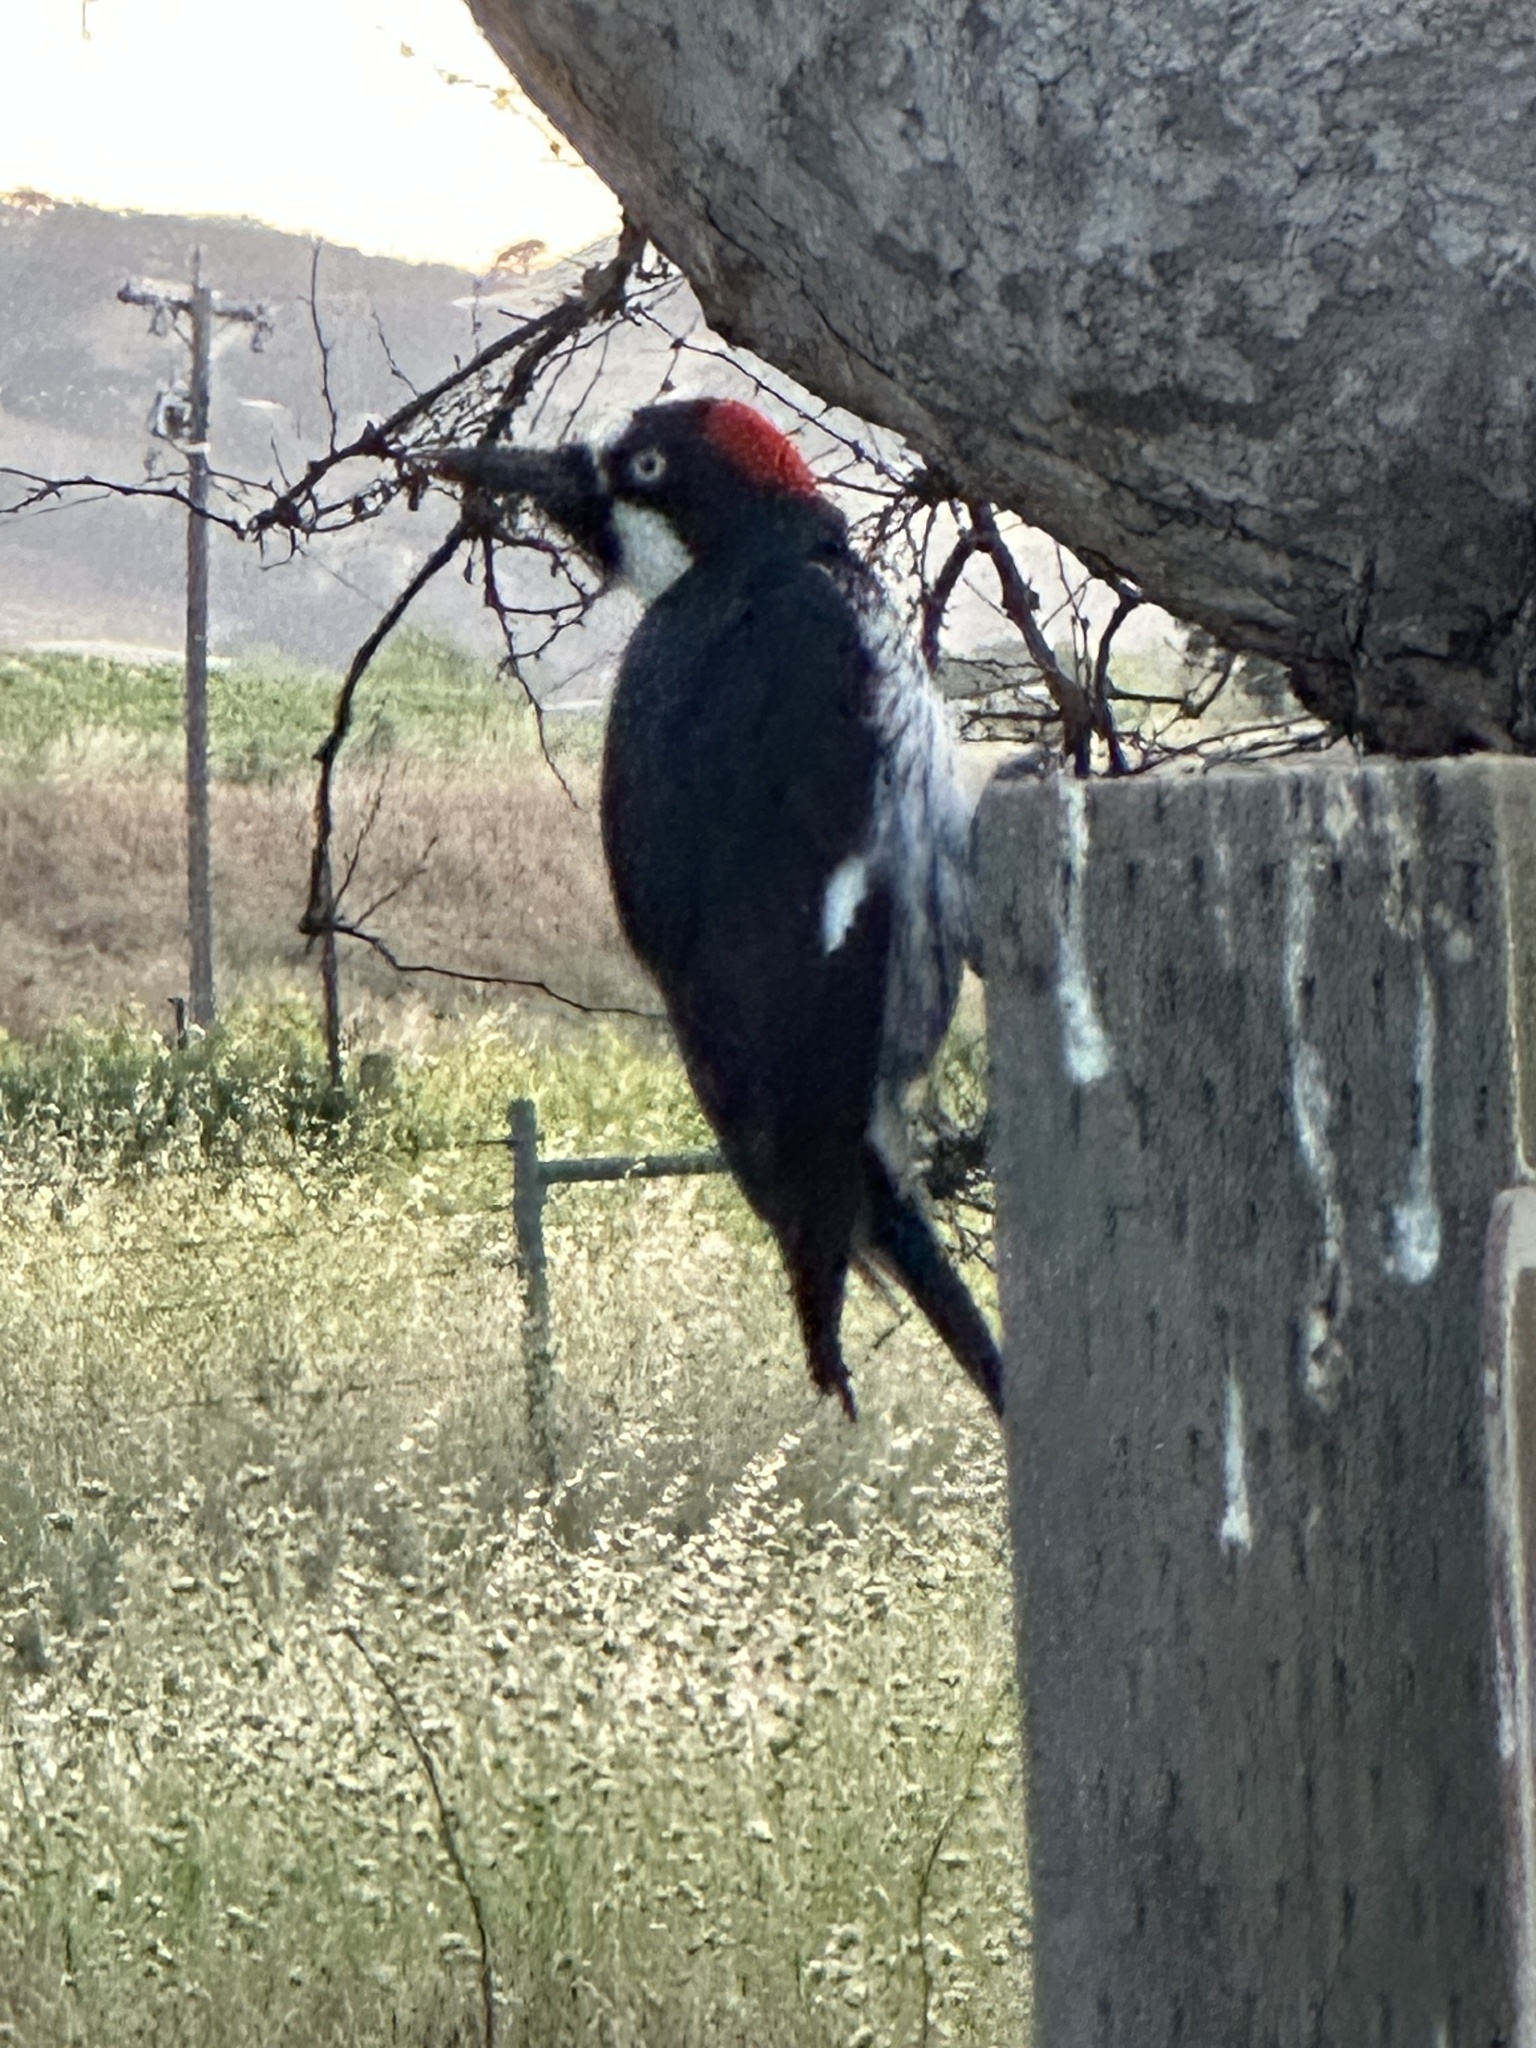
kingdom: Animalia
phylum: Chordata
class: Aves
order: Piciformes
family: Picidae
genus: Melanerpes
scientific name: Melanerpes formicivorus
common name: Acorn woodpecker
